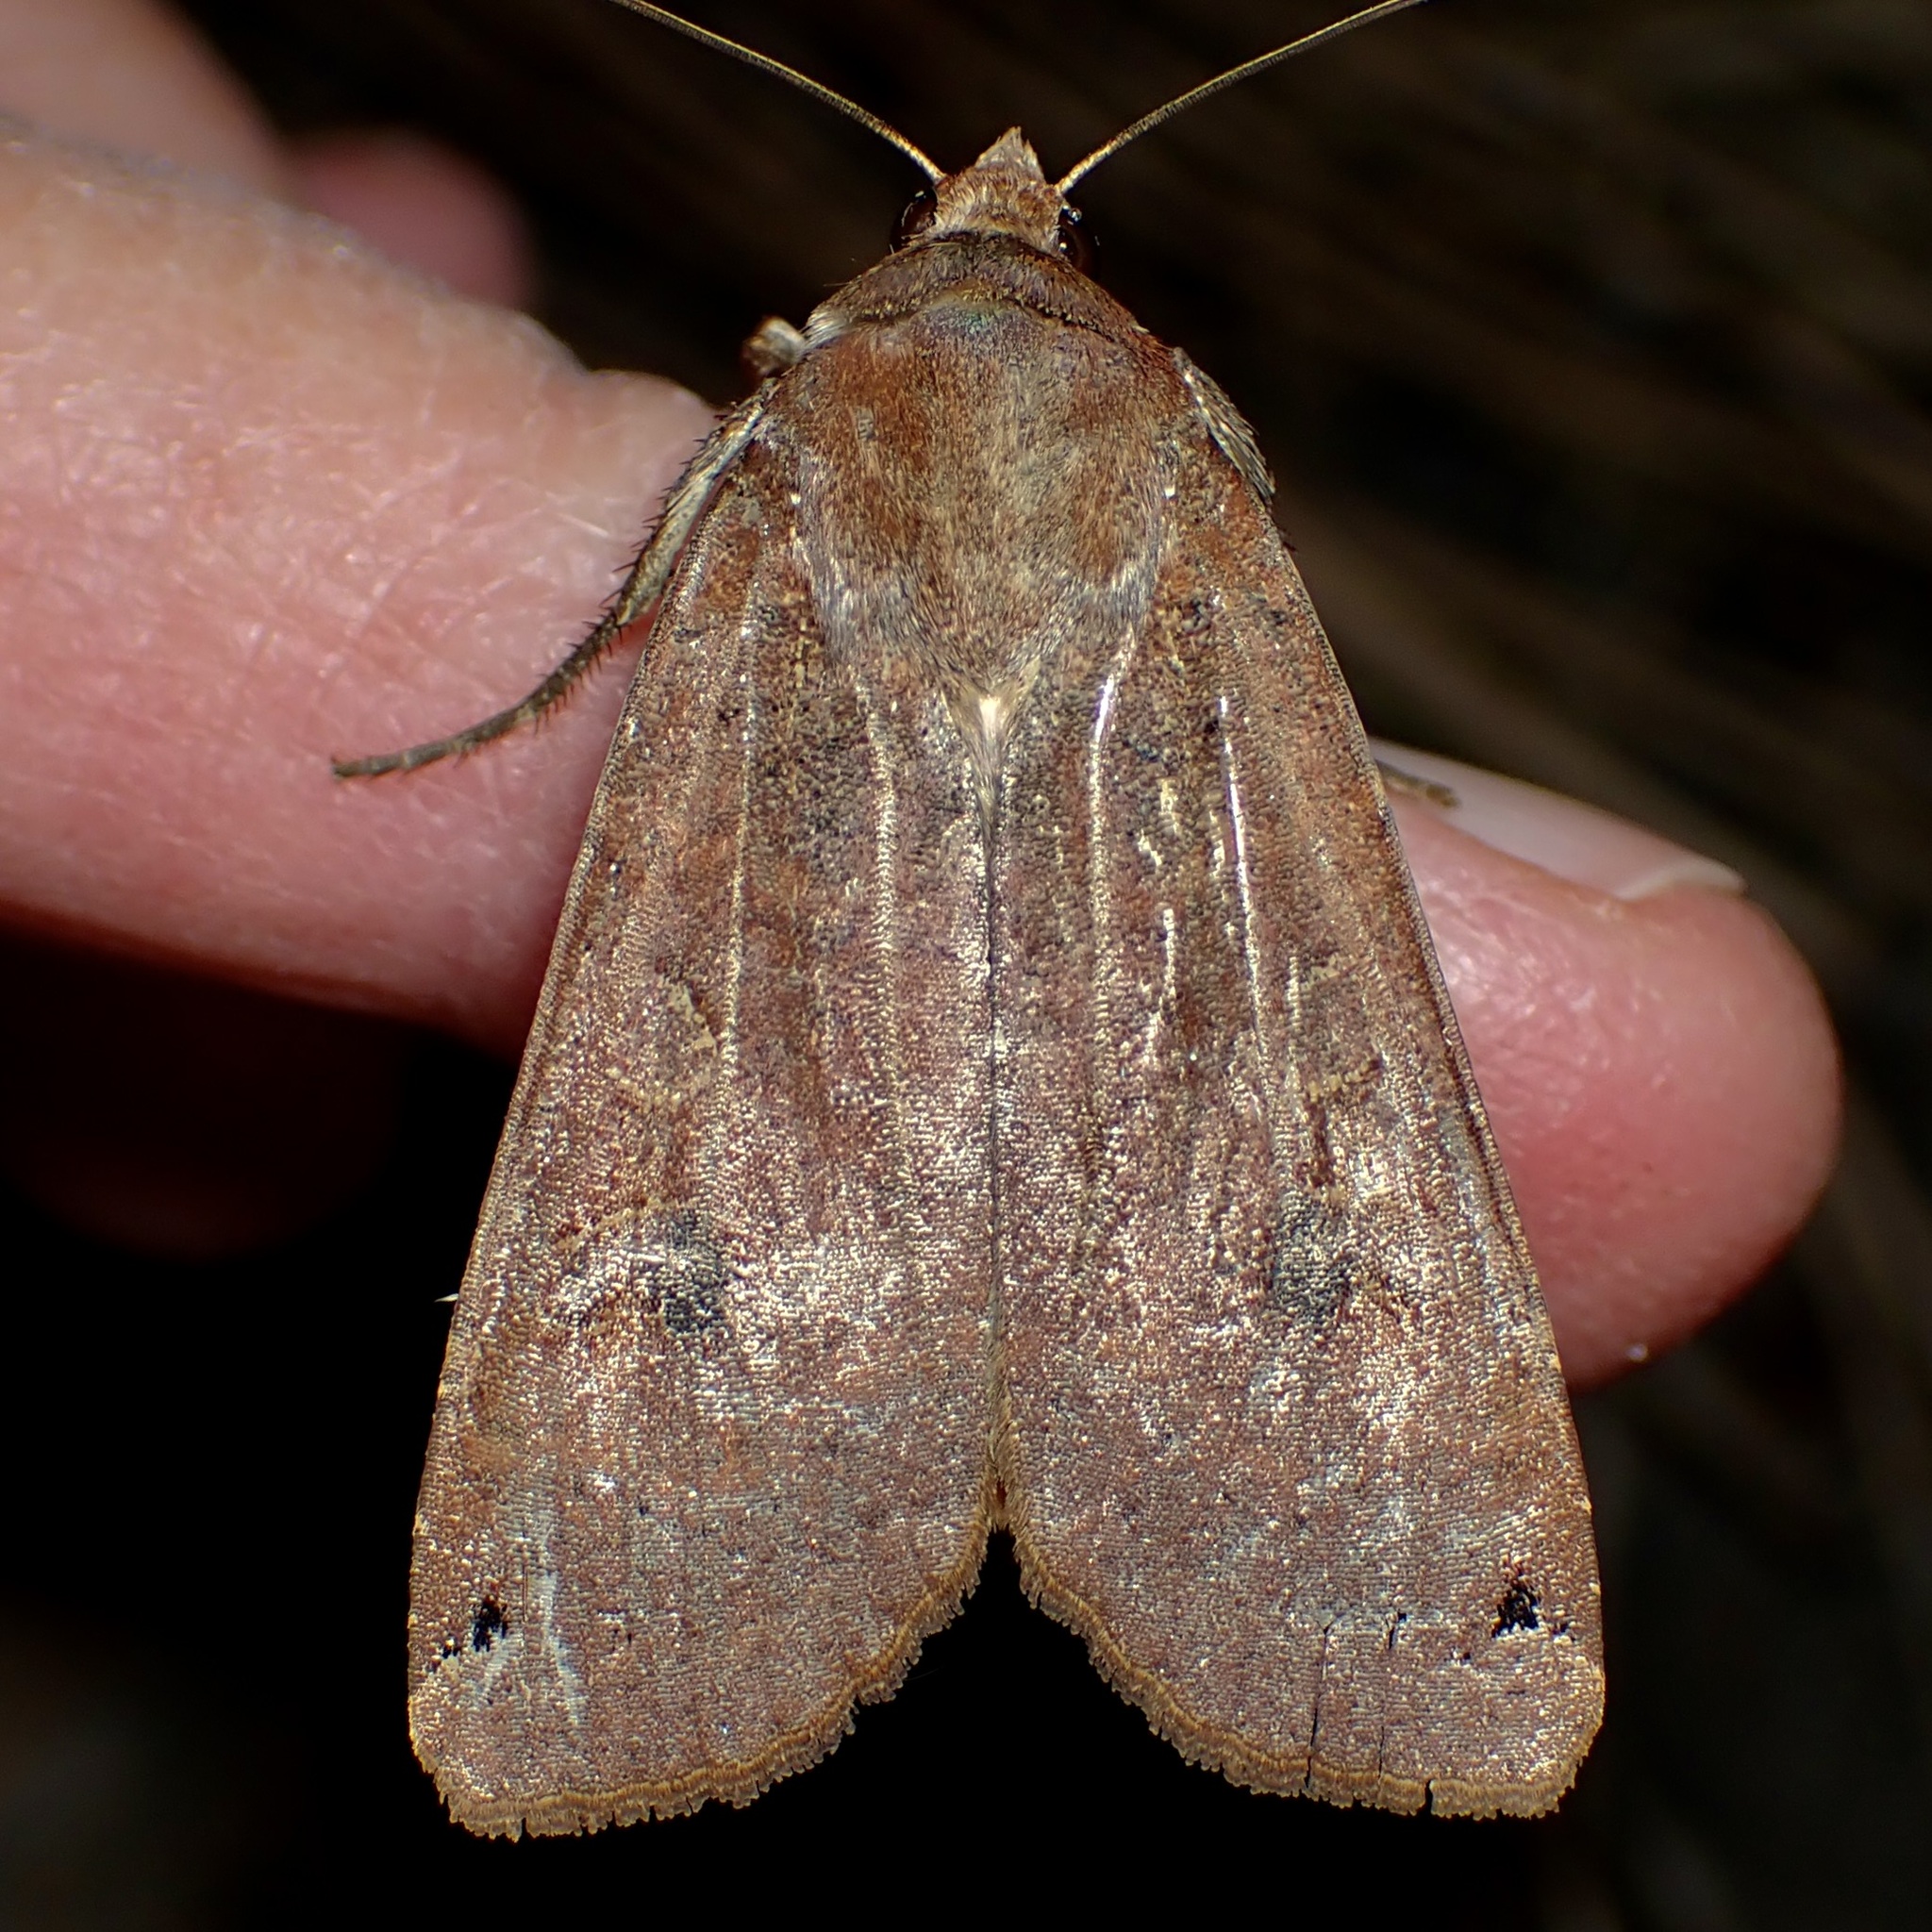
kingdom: Animalia
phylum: Arthropoda
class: Insecta
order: Lepidoptera
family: Noctuidae
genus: Noctua
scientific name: Noctua pronuba
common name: Large yellow underwing
